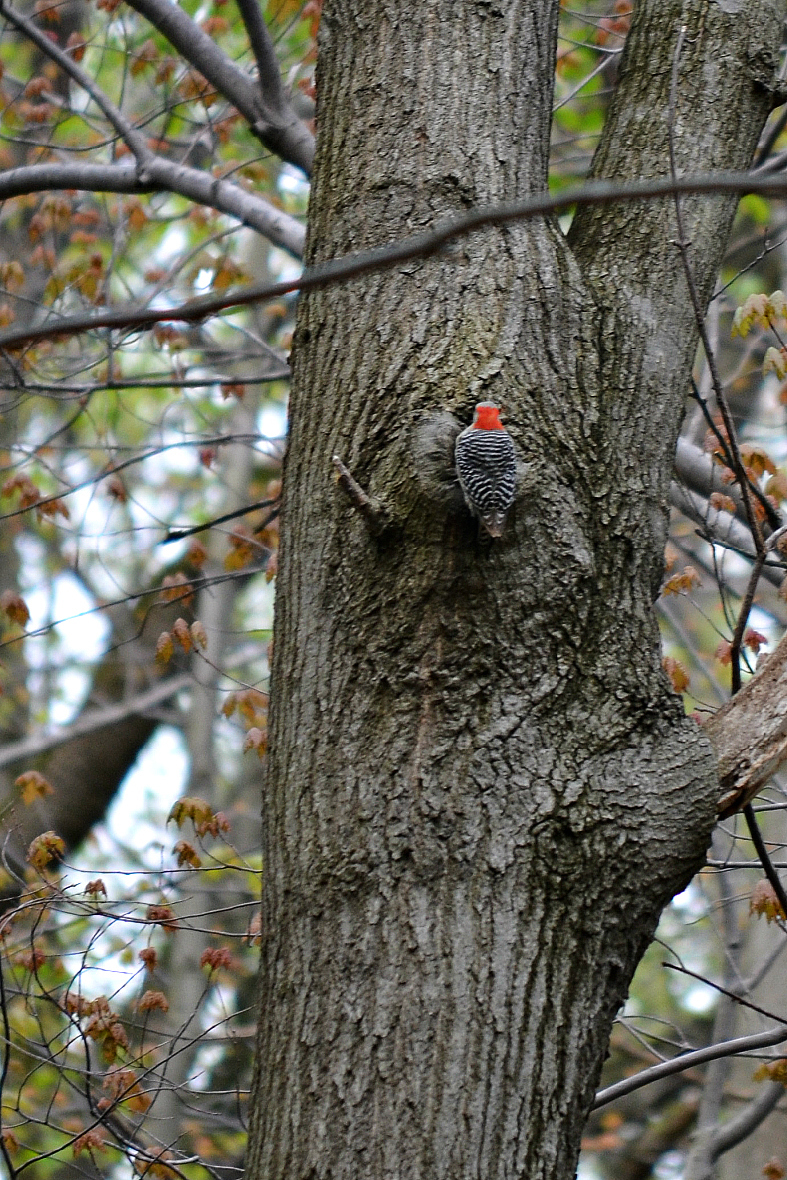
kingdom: Animalia
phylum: Chordata
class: Aves
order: Piciformes
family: Picidae
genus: Melanerpes
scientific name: Melanerpes carolinus
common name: Red-bellied woodpecker
